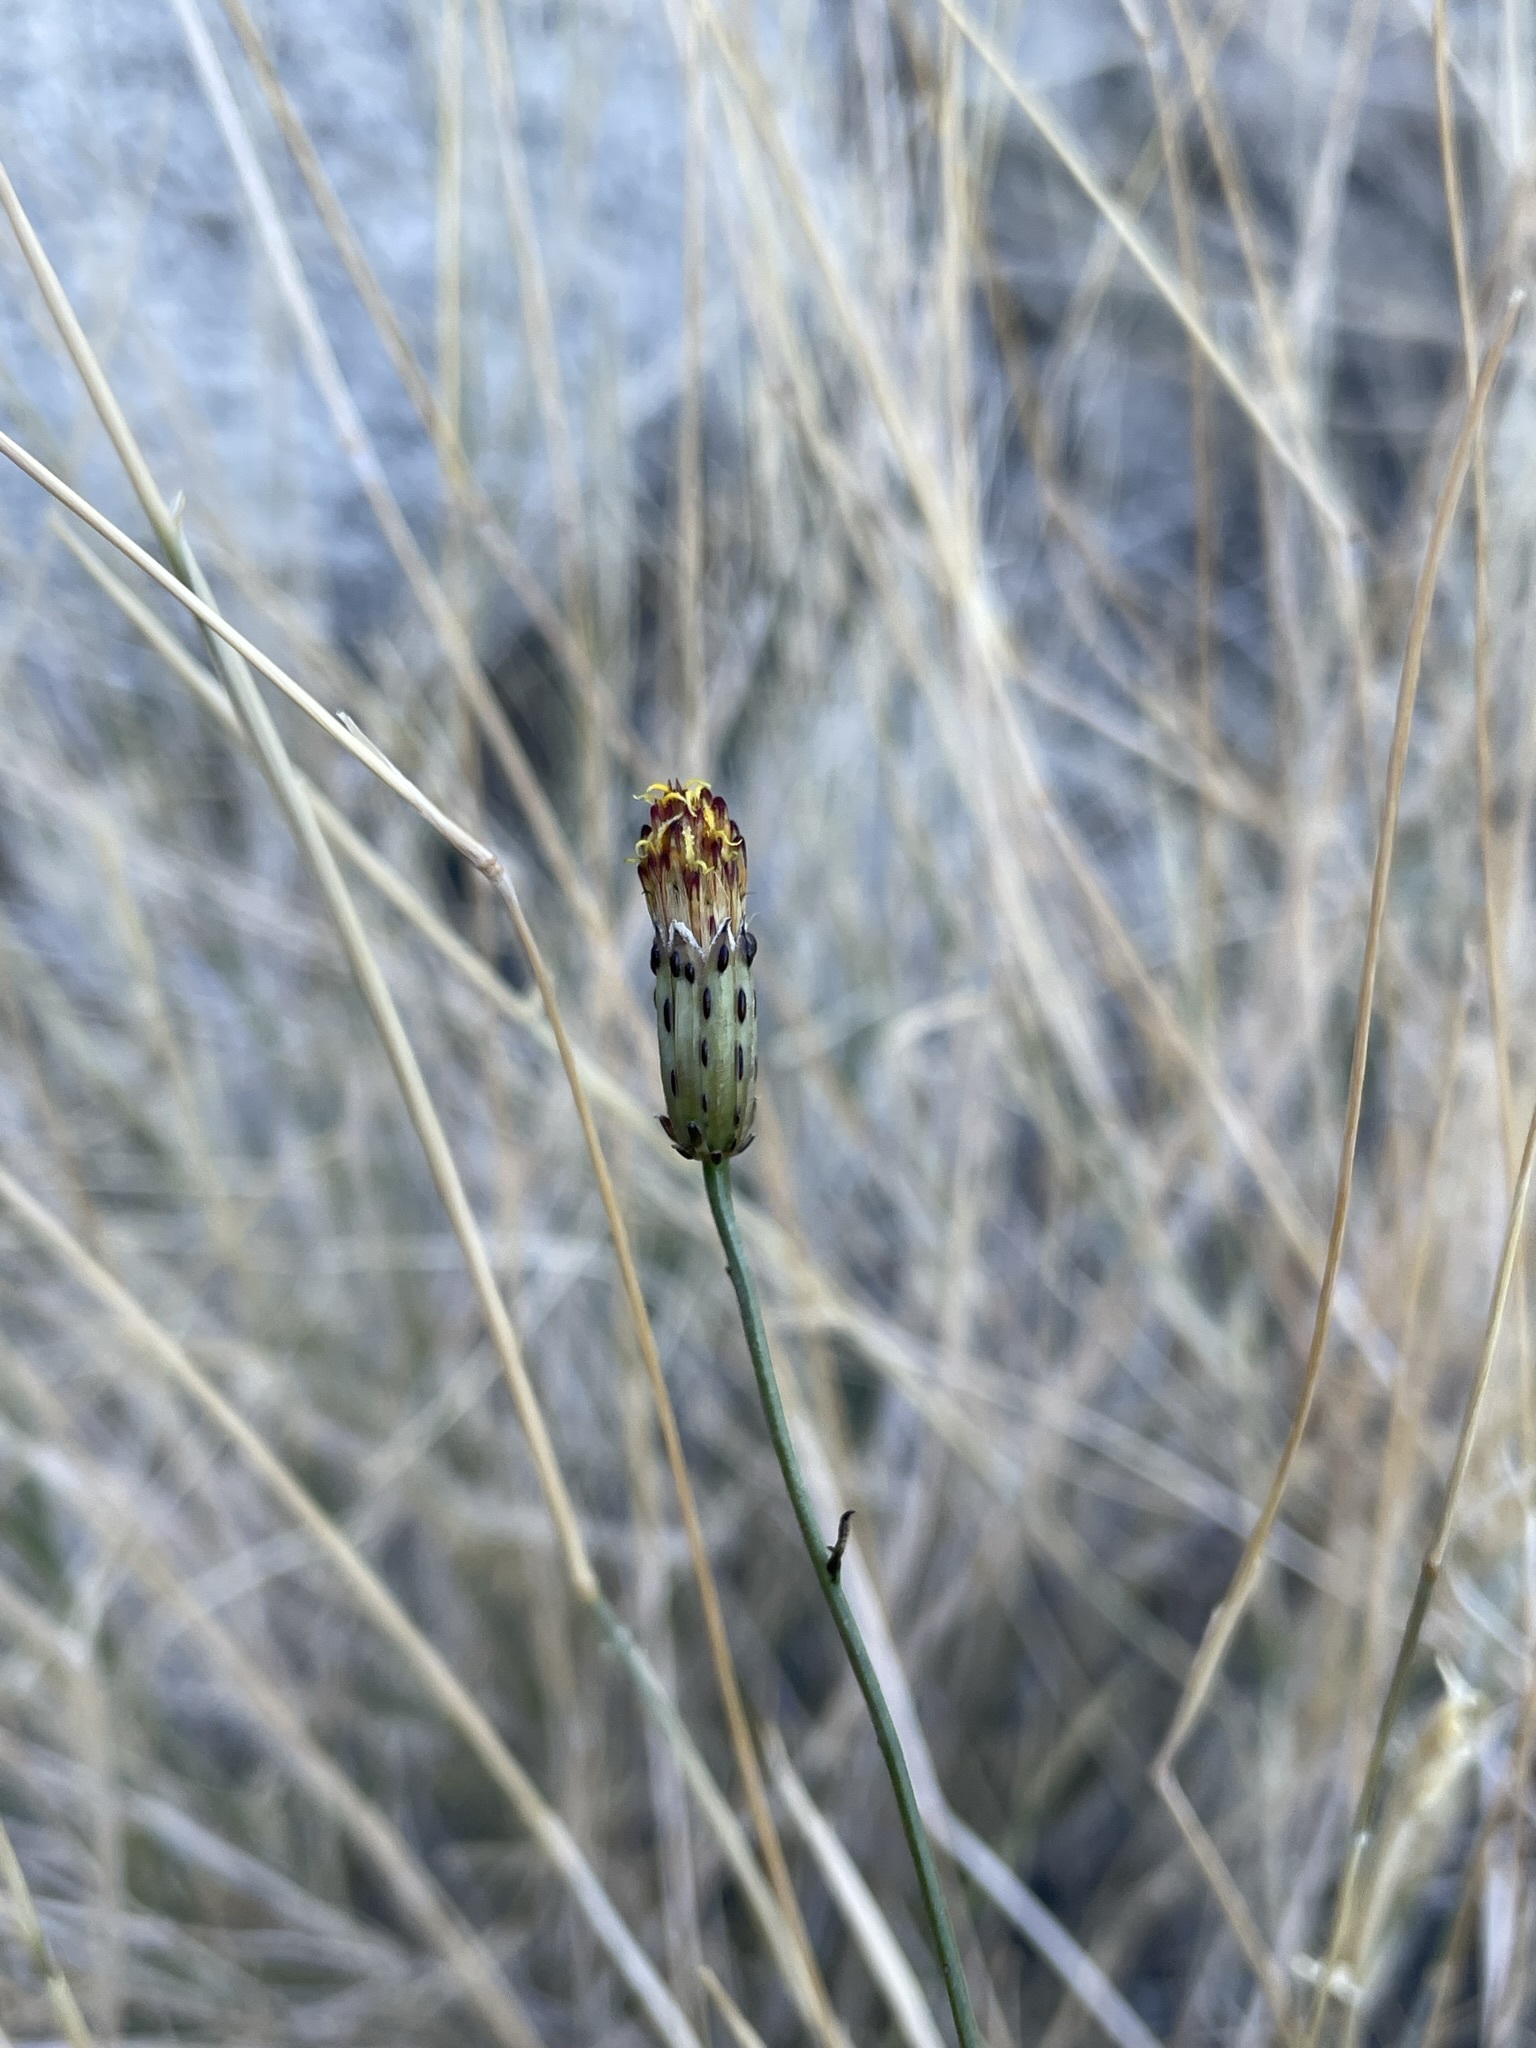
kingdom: Plantae
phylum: Tracheophyta
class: Magnoliopsida
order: Asterales
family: Asteraceae
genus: Adenophyllum
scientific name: Adenophyllum porophylloides
